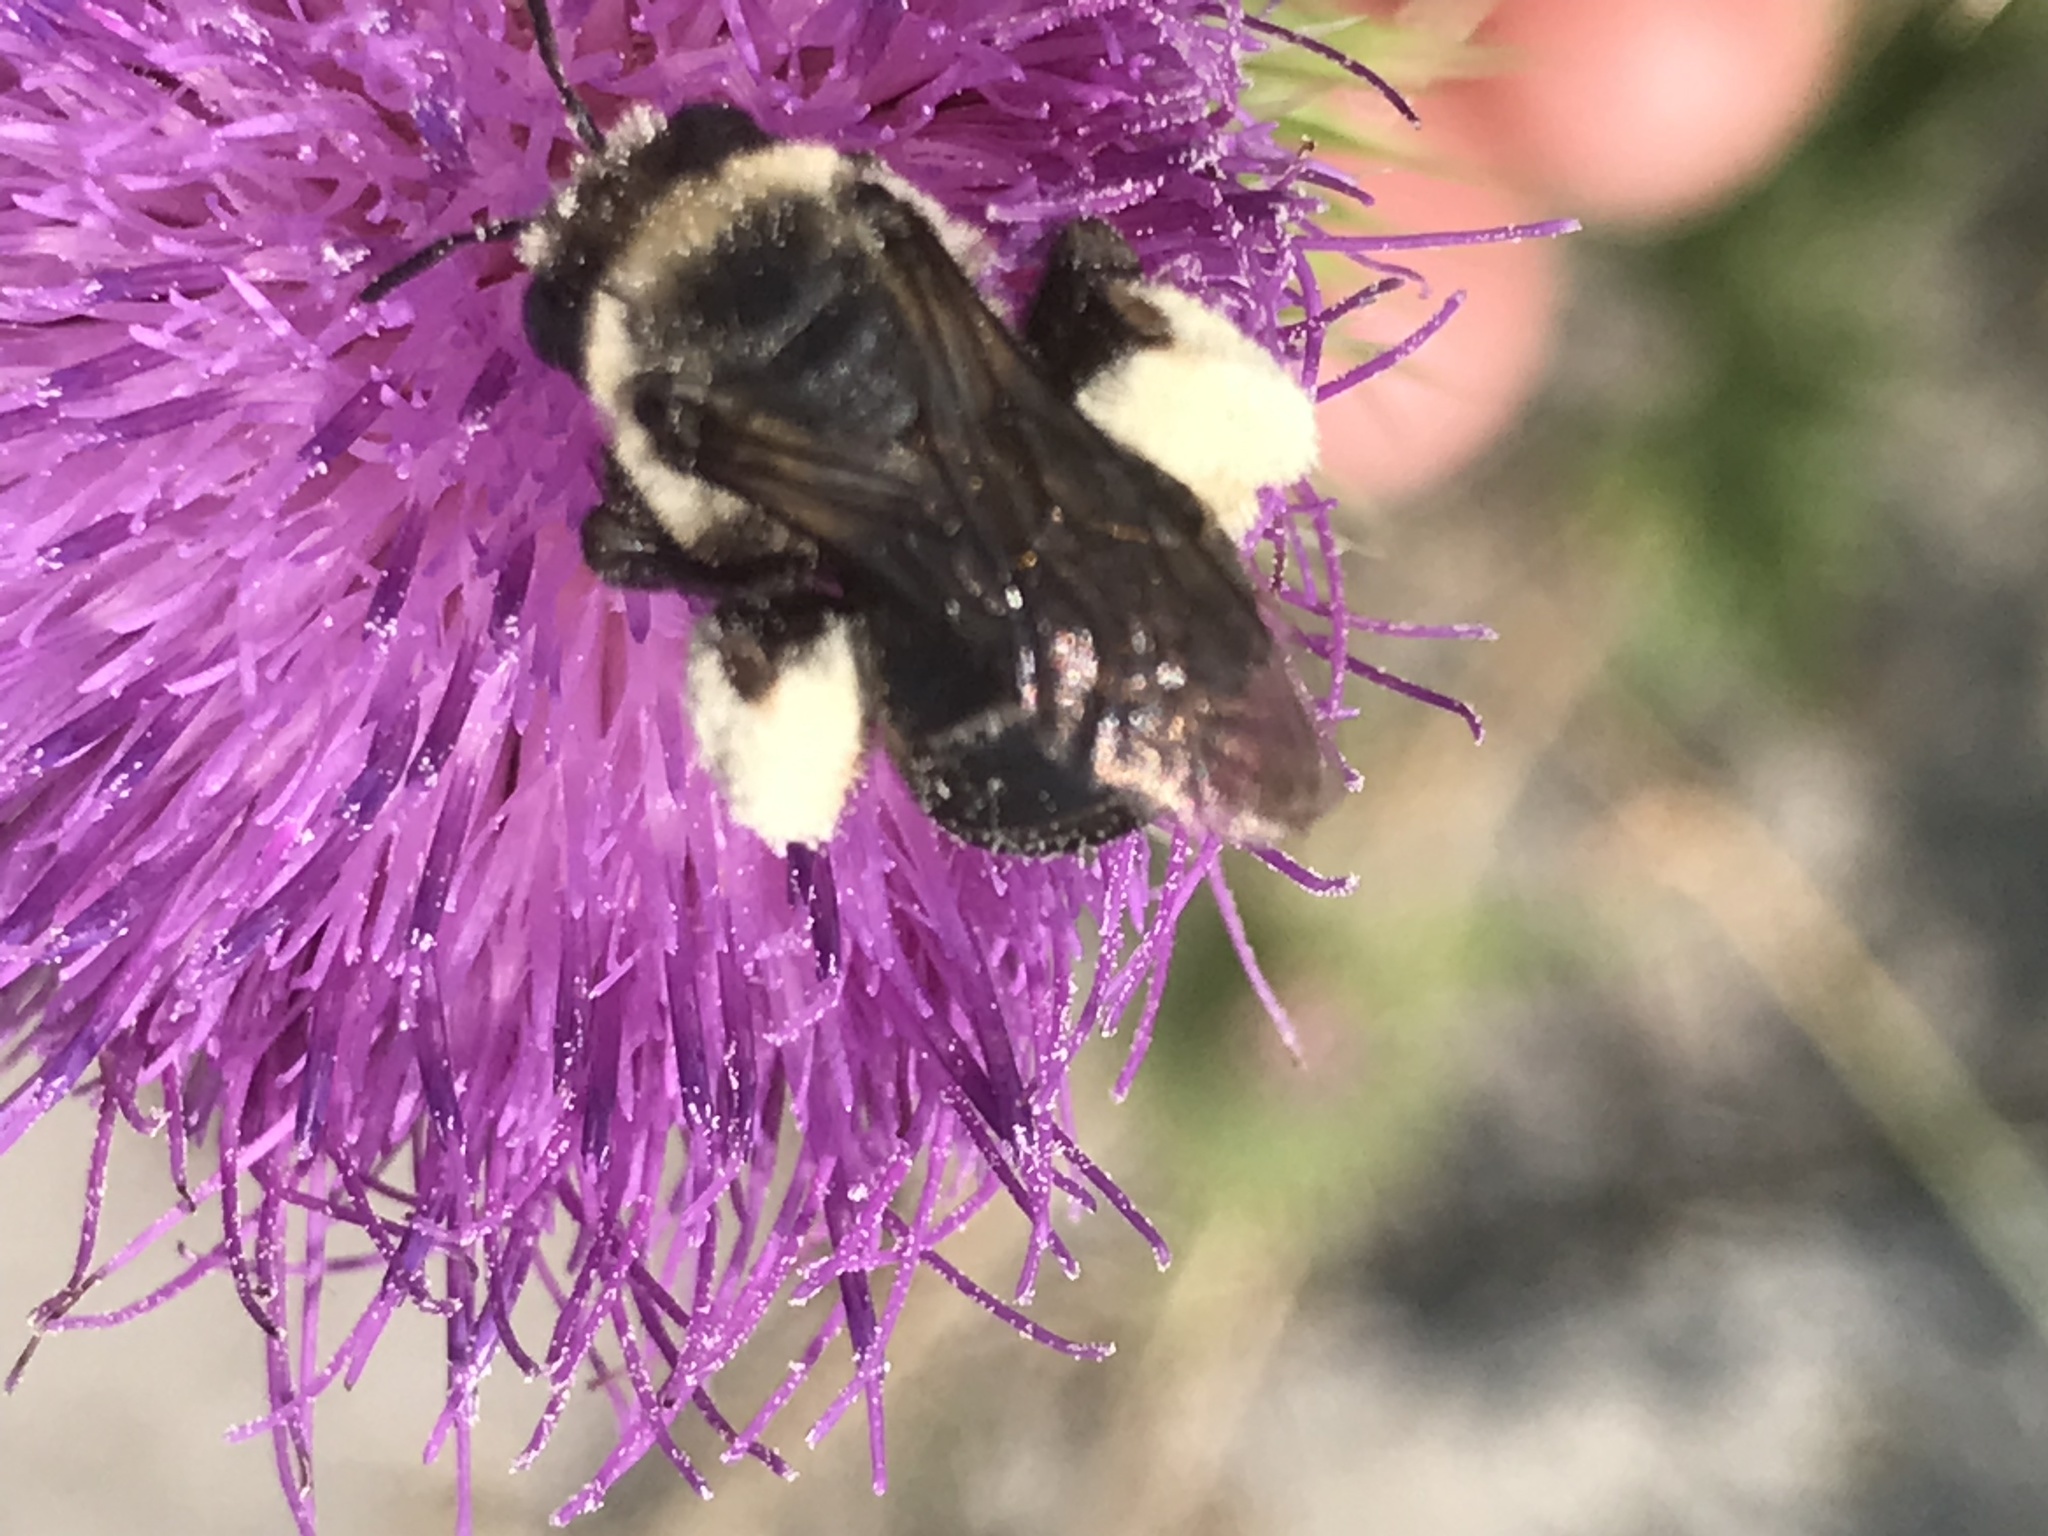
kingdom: Animalia
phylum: Arthropoda
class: Insecta
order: Hymenoptera
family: Apidae
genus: Melissodes
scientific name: Melissodes desponsus
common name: Thistle long-horned bee
